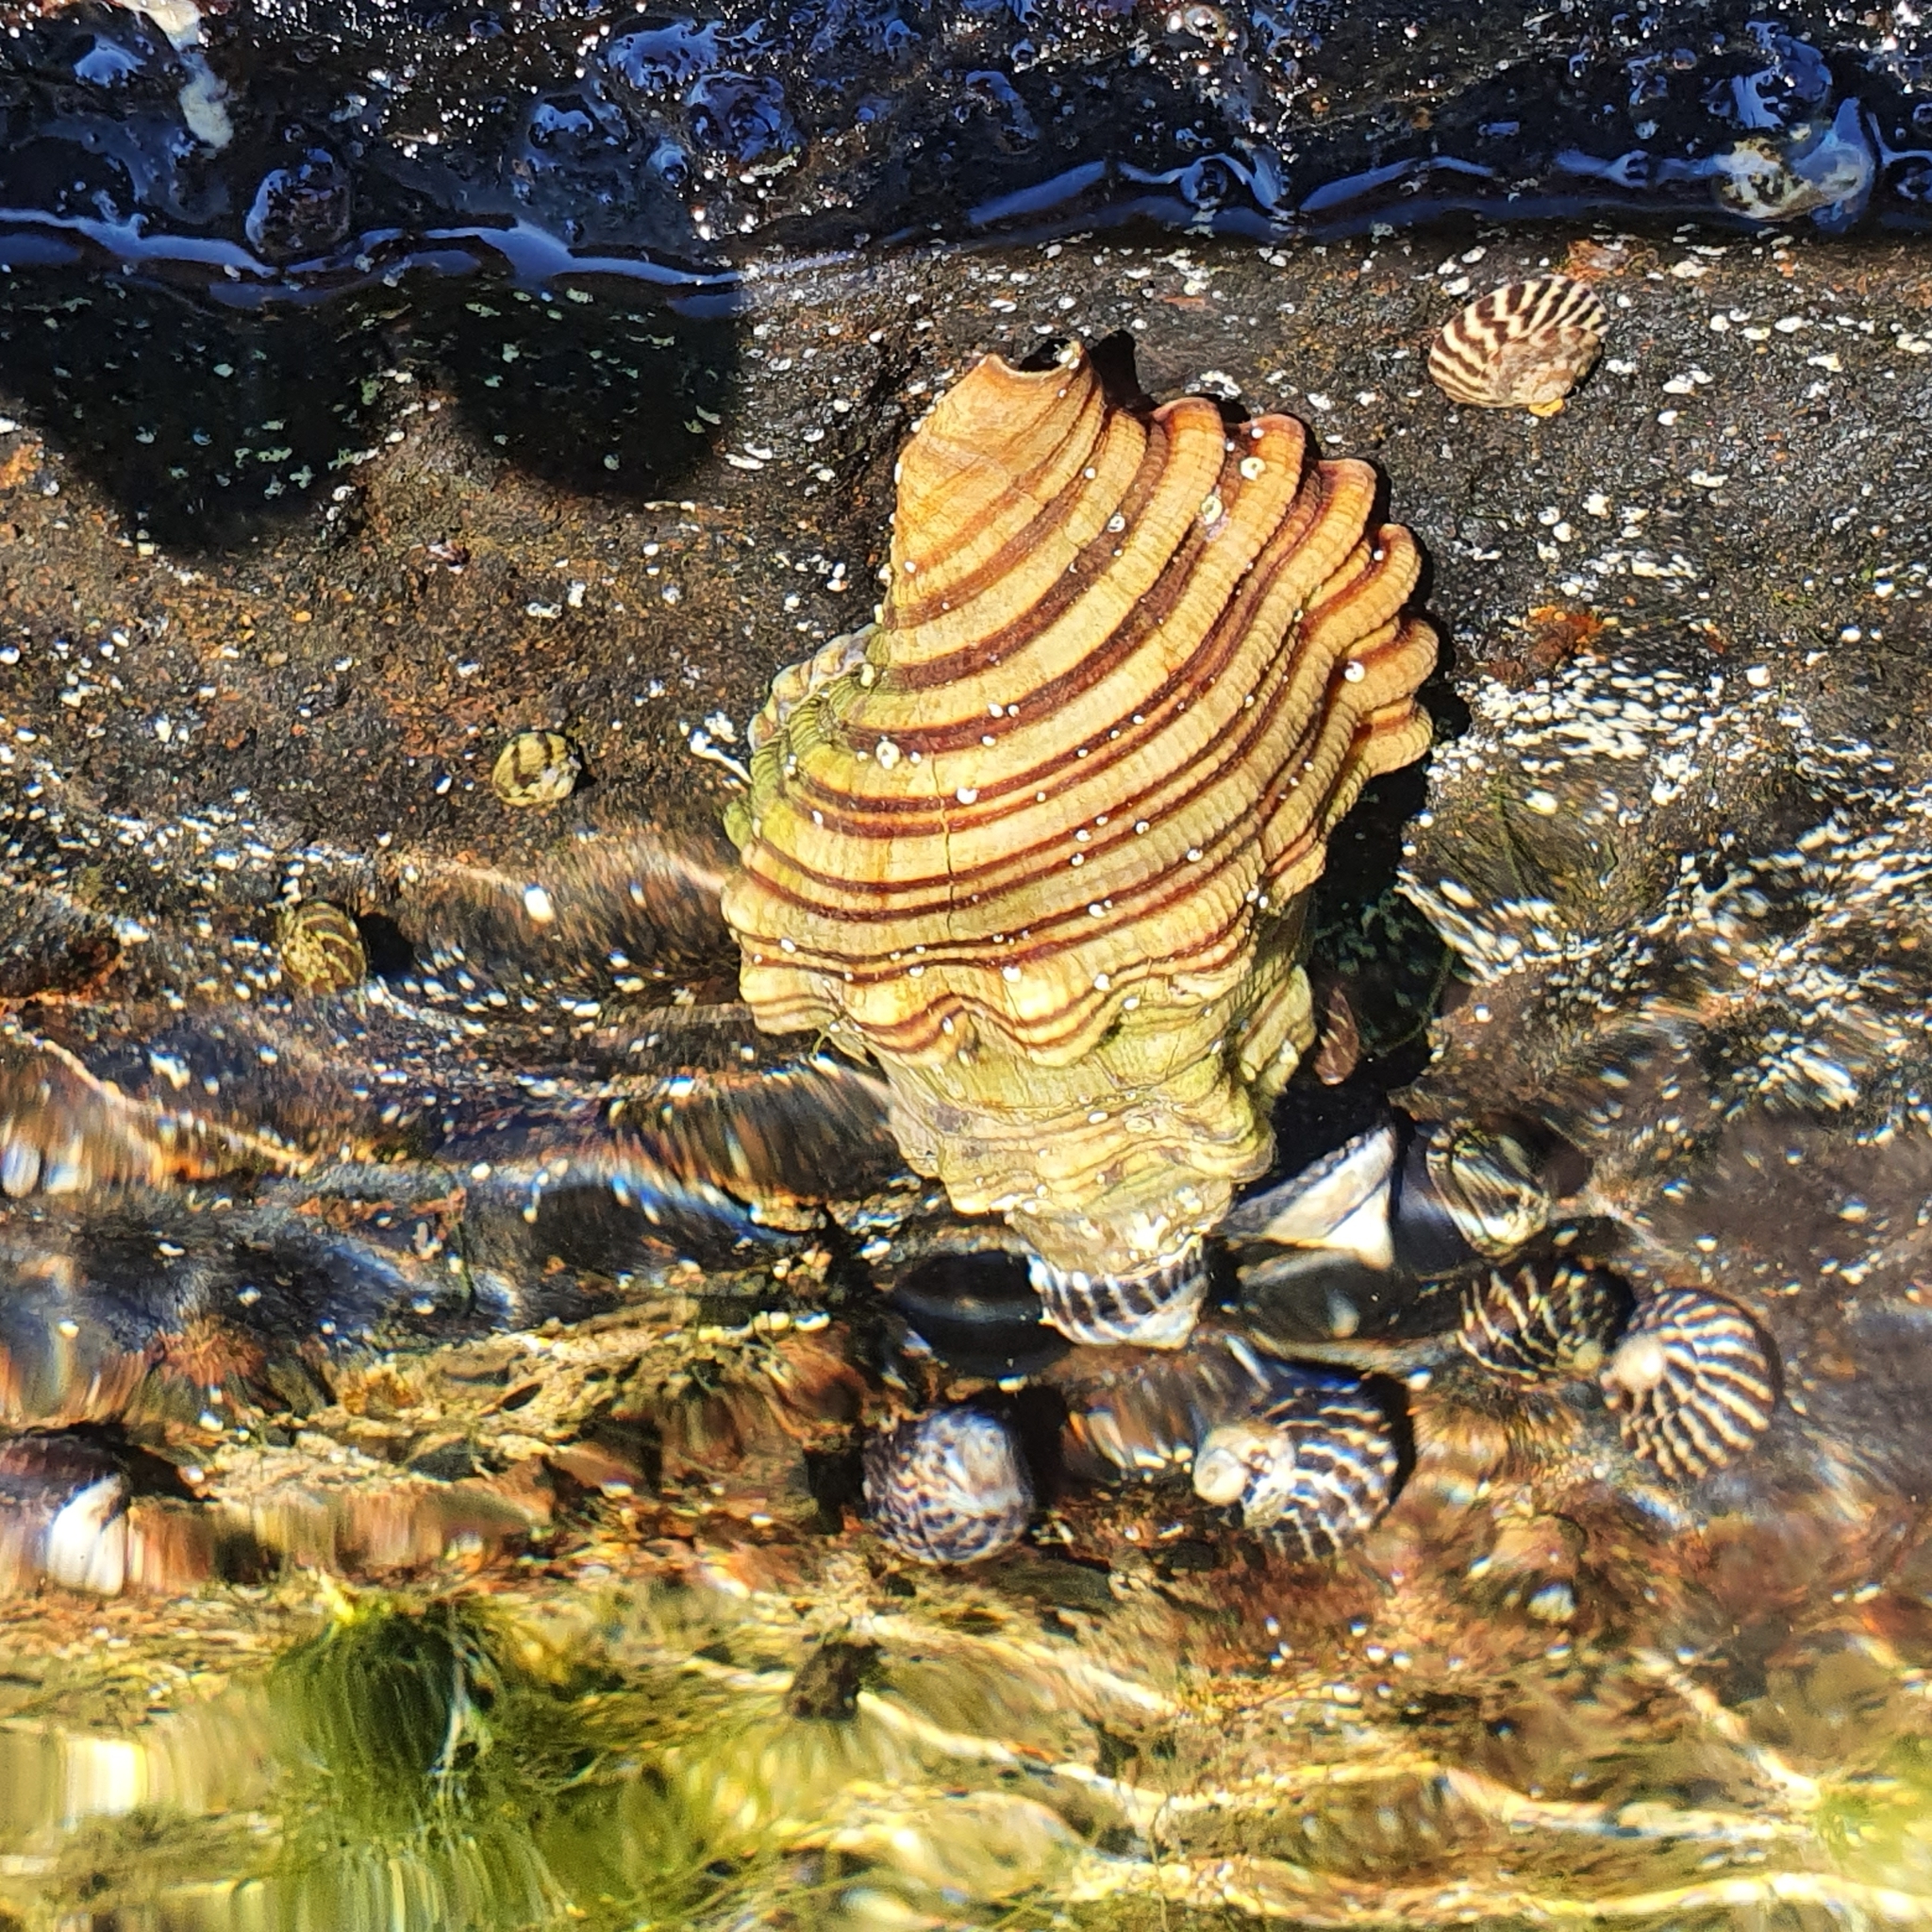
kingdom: Animalia
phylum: Mollusca
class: Gastropoda
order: Littorinimorpha
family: Cymatiidae
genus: Cabestana
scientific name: Cabestana spengleri
